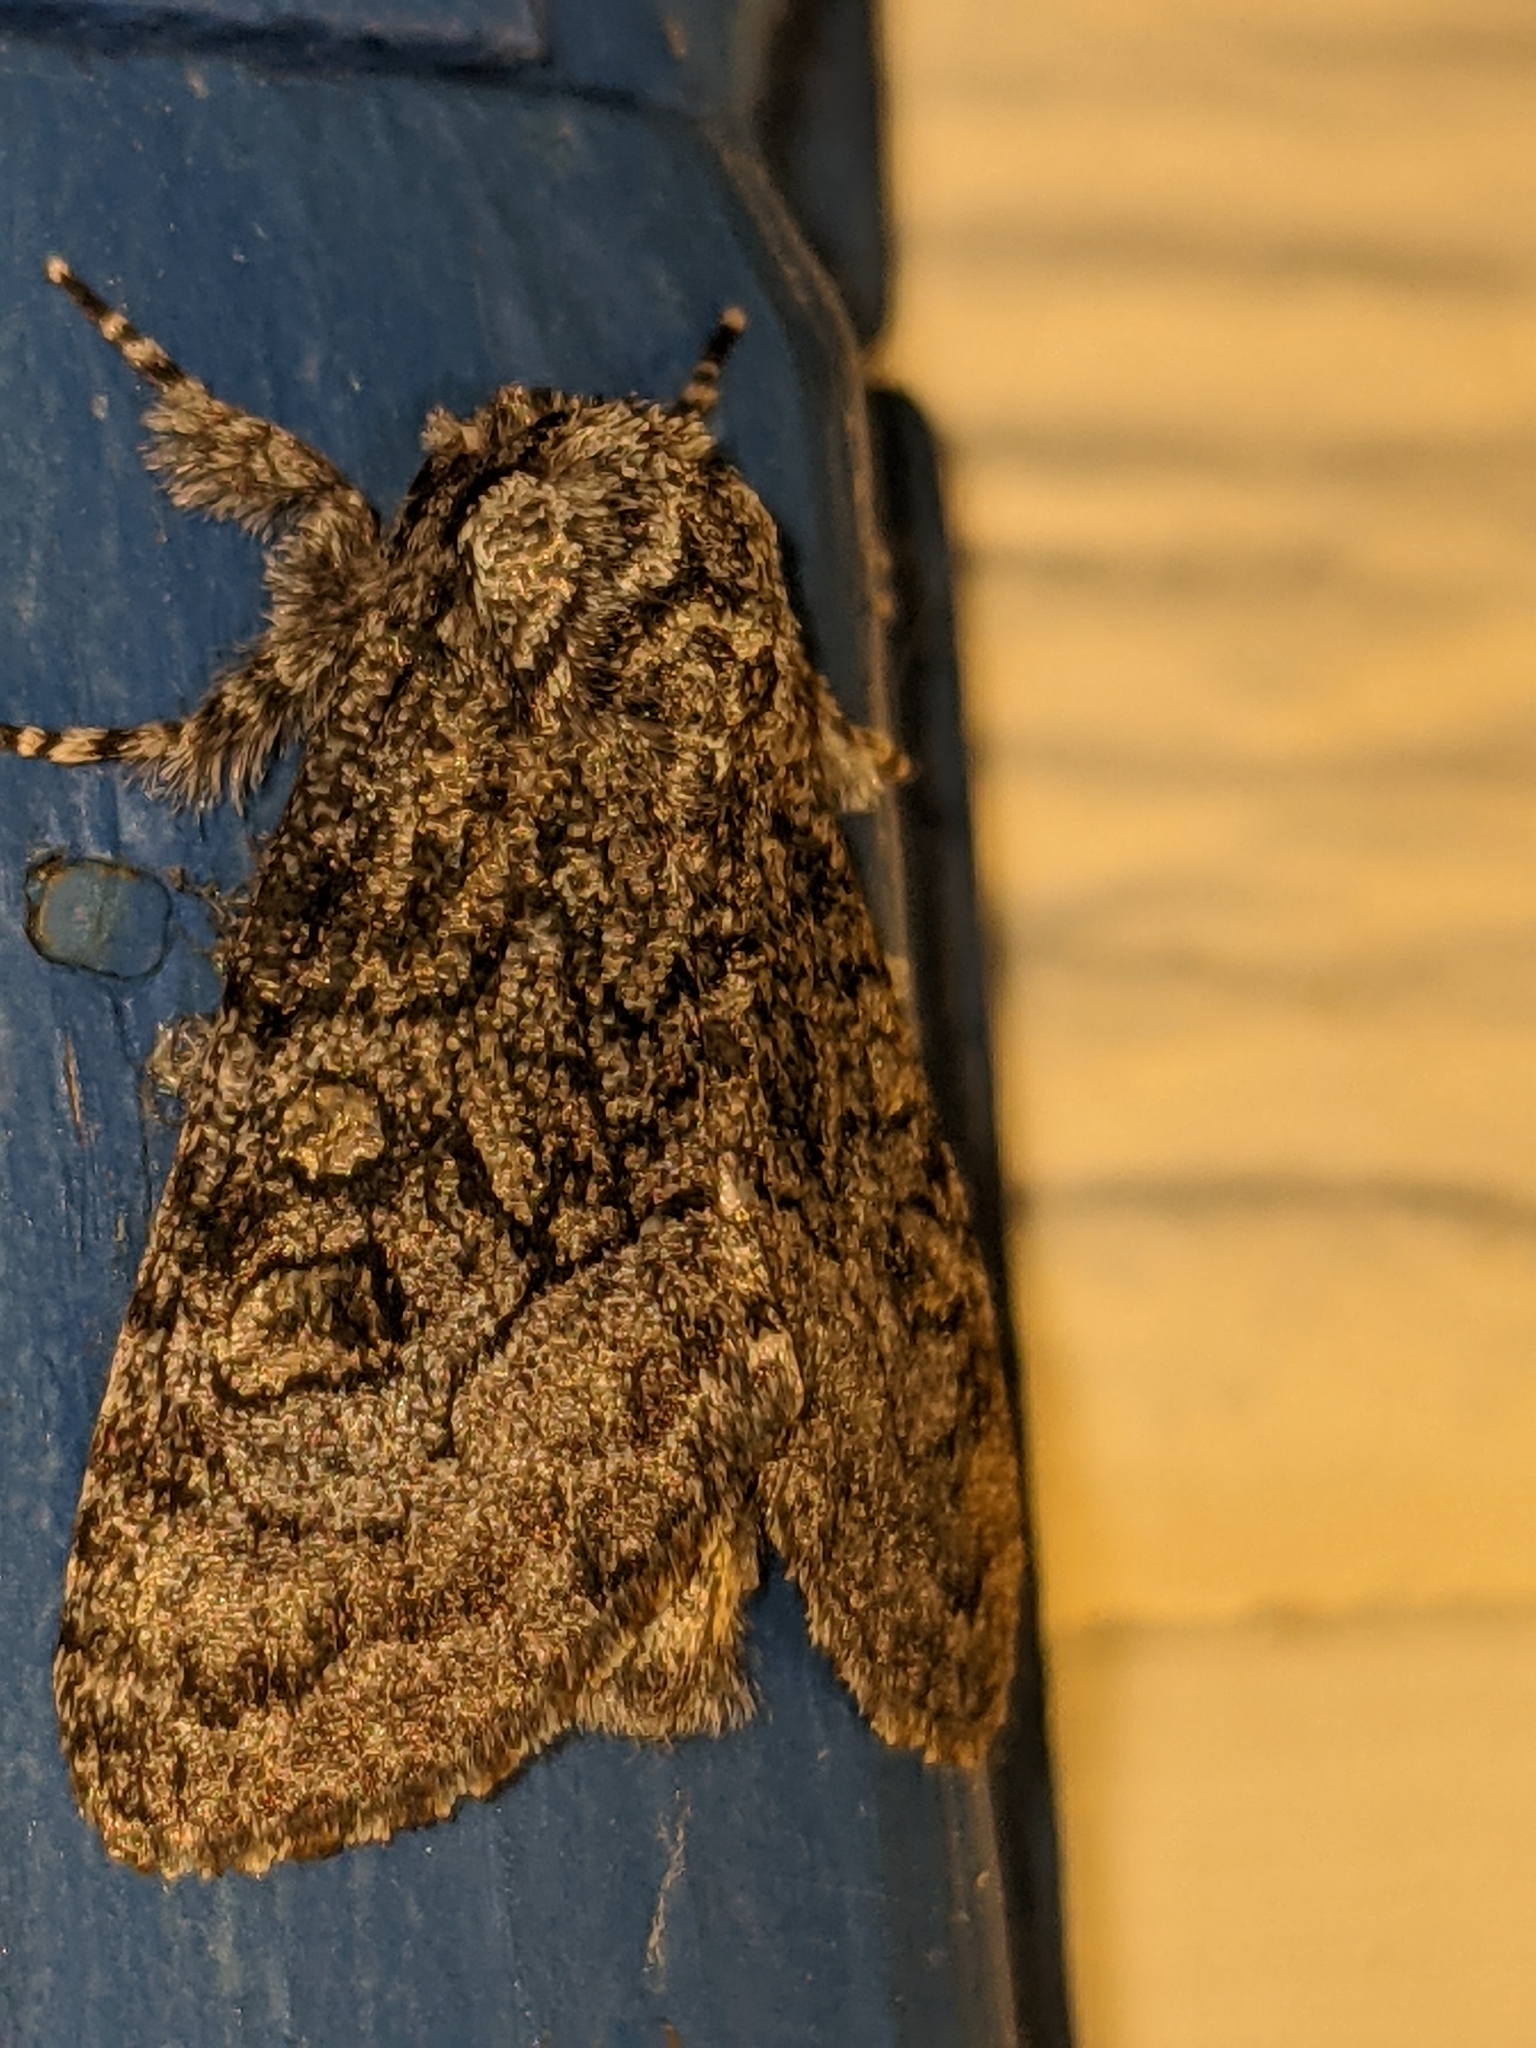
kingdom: Animalia
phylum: Arthropoda
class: Insecta
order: Lepidoptera
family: Noctuidae
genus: Raphia
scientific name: Raphia frater
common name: Brother
